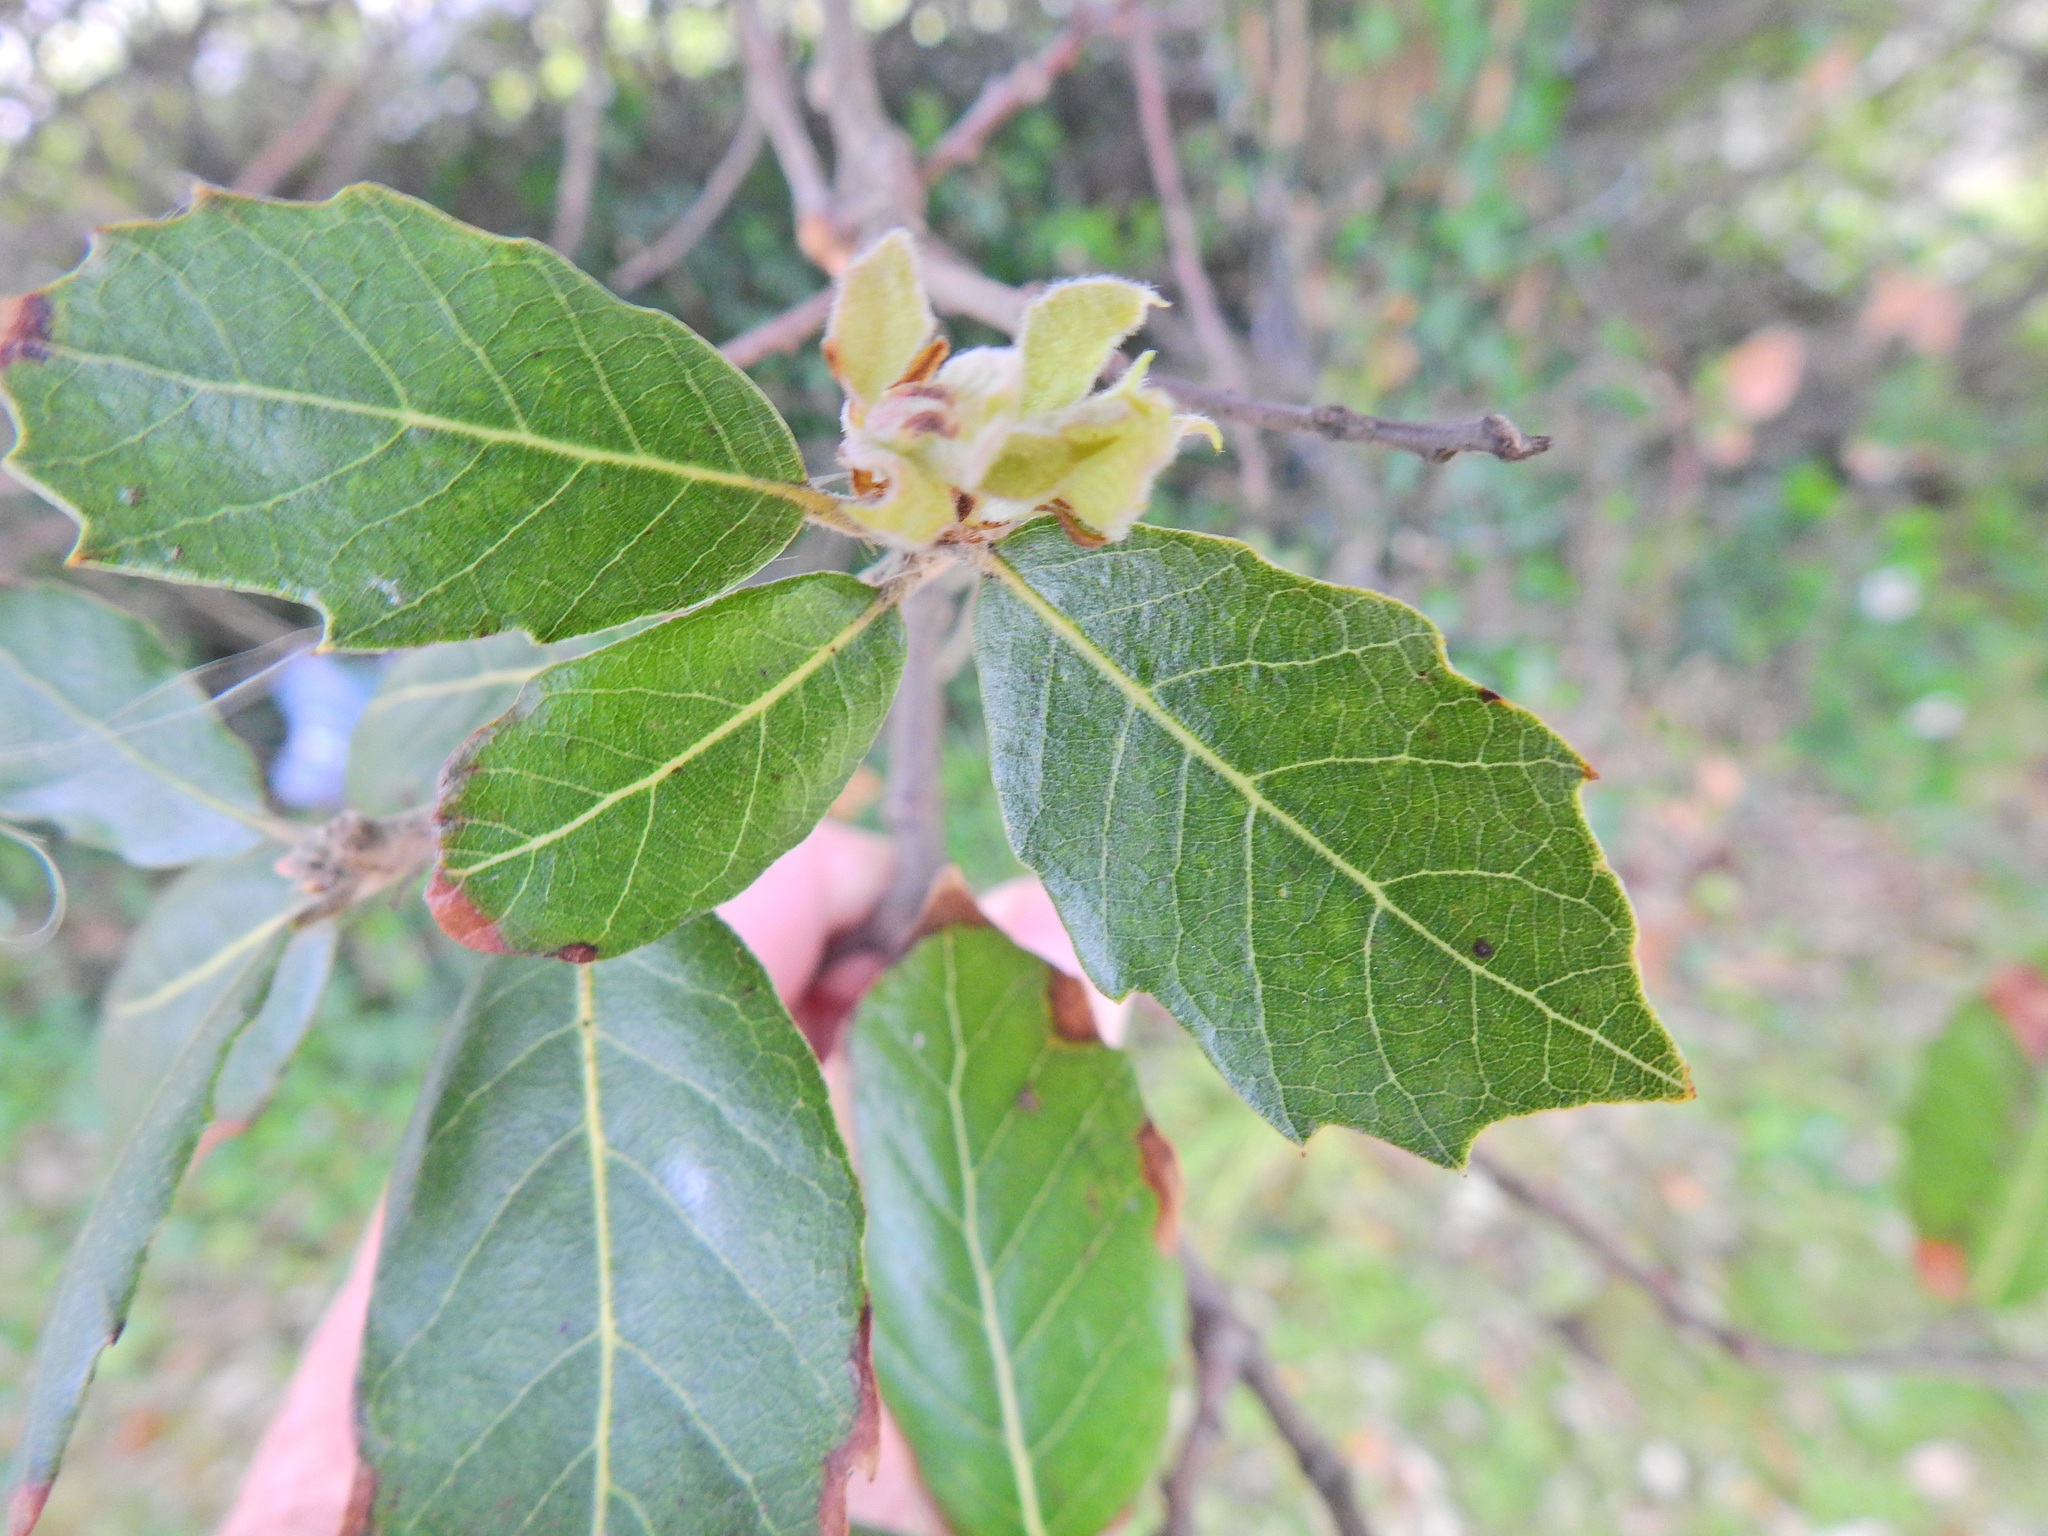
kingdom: Plantae
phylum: Tracheophyta
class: Magnoliopsida
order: Fagales
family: Fagaceae
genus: Quercus
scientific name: Quercus ilex
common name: Evergreen oak
